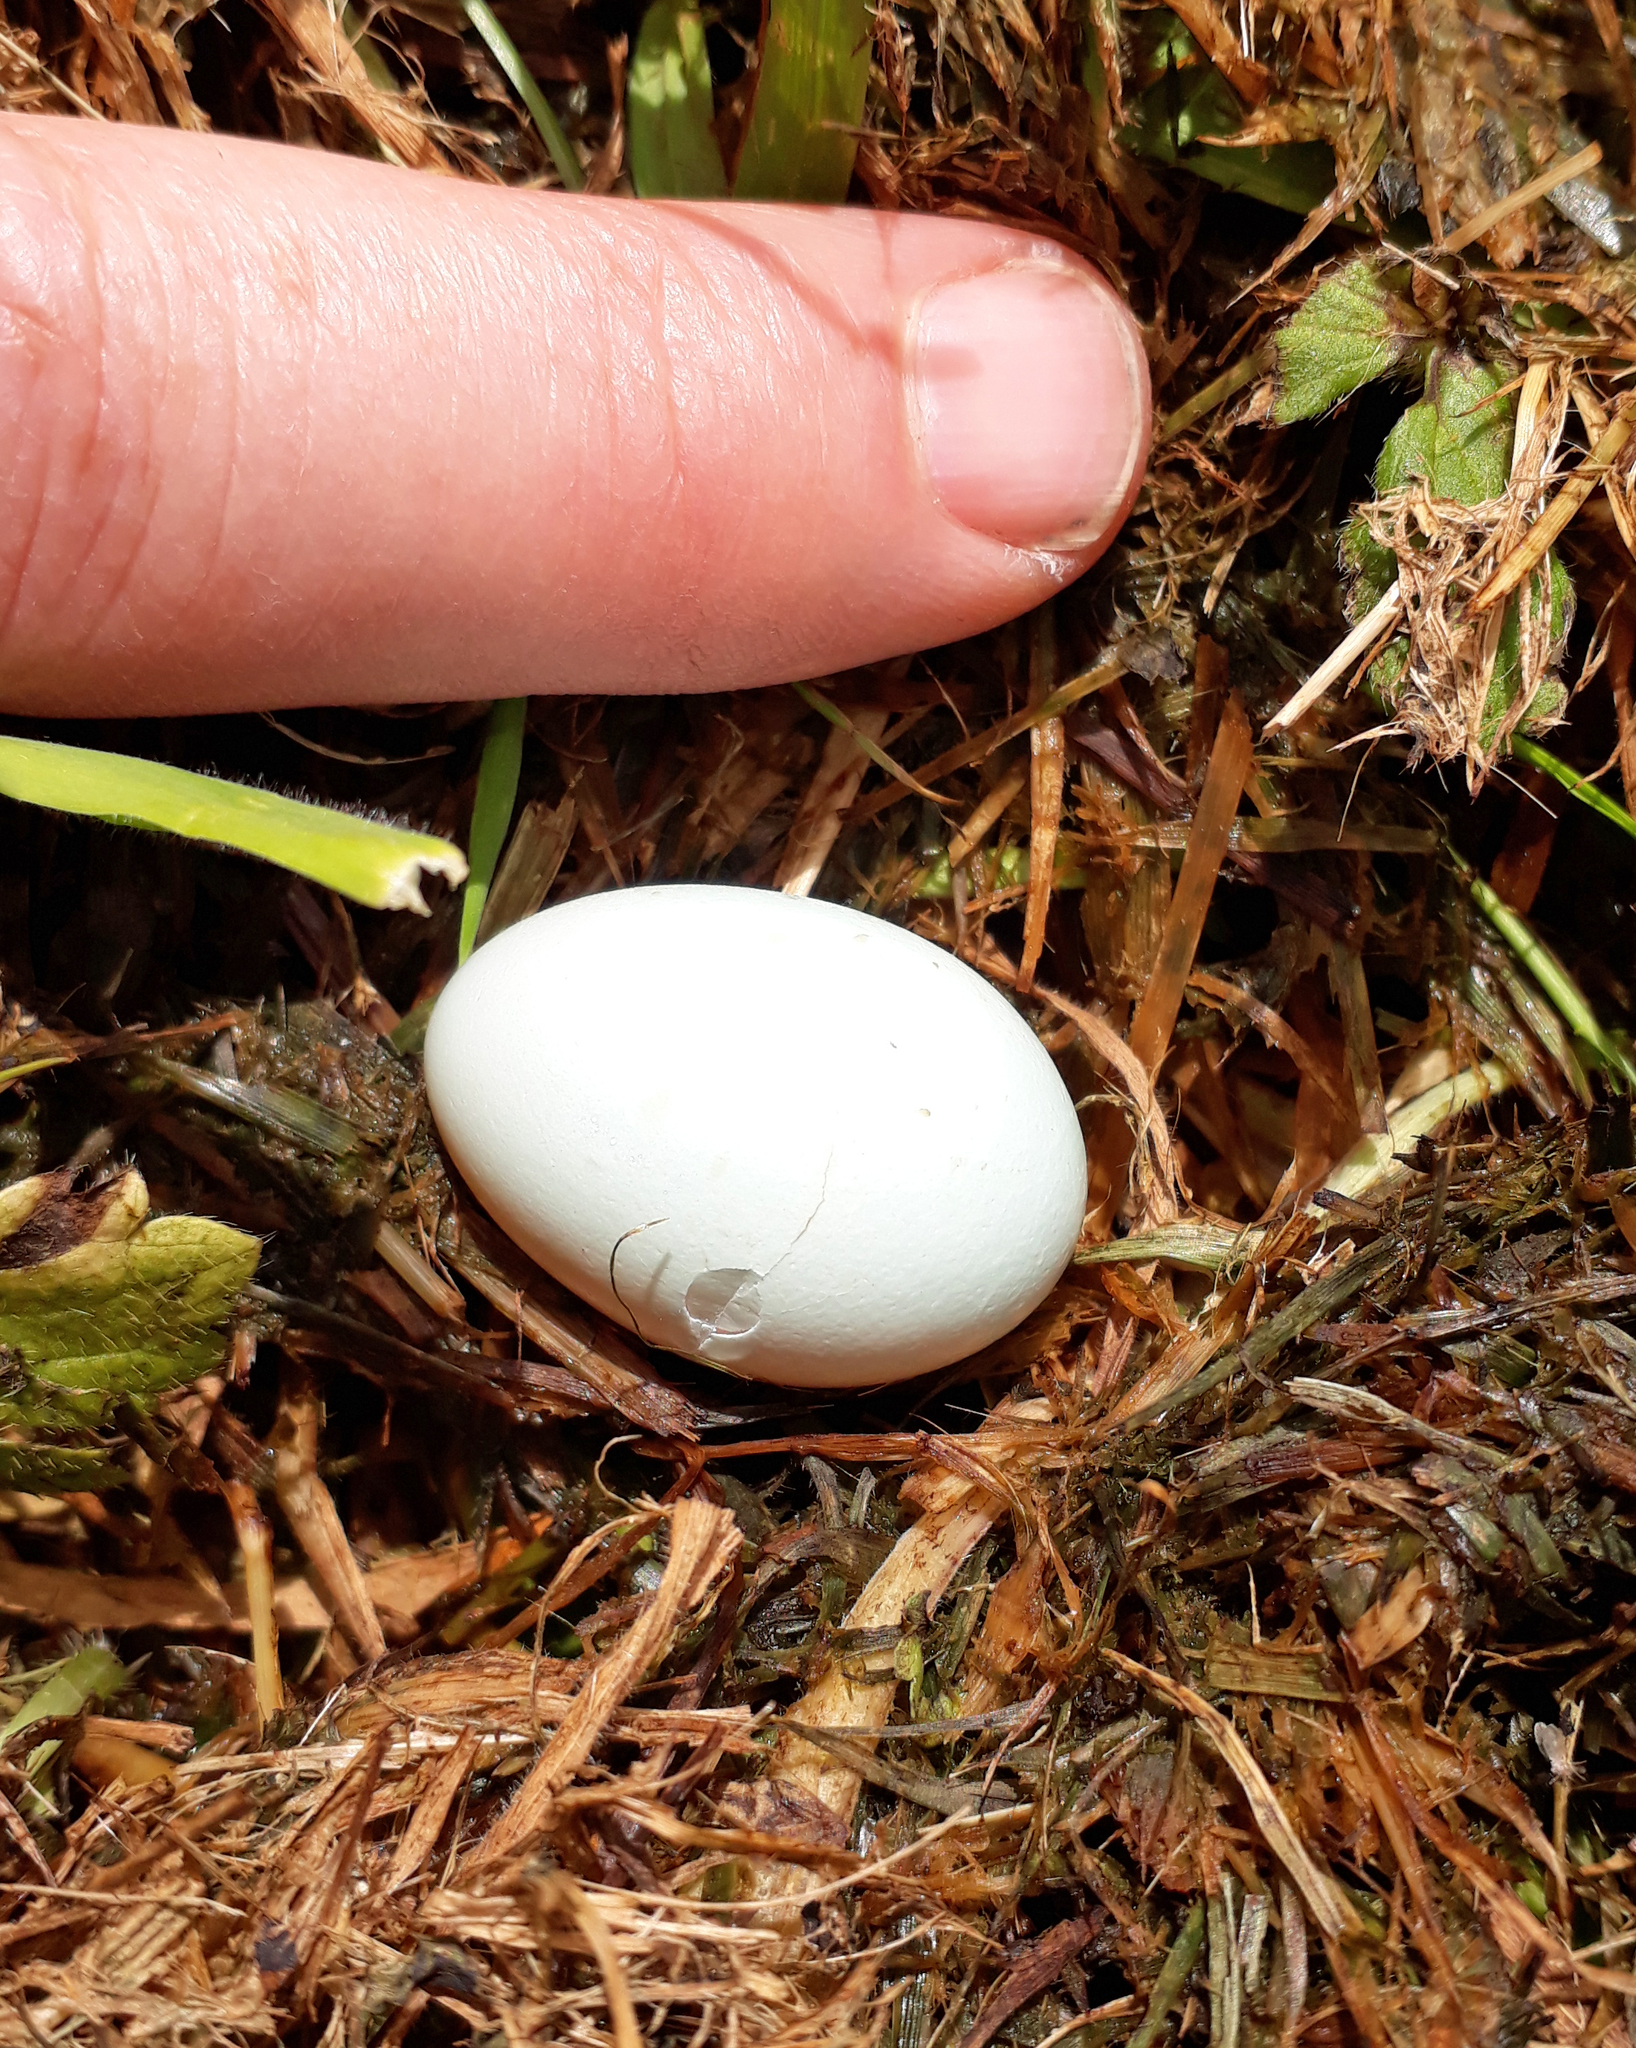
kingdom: Animalia
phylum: Chordata
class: Aves
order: Passeriformes
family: Sturnidae
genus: Sturnus
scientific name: Sturnus vulgaris
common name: Common starling
